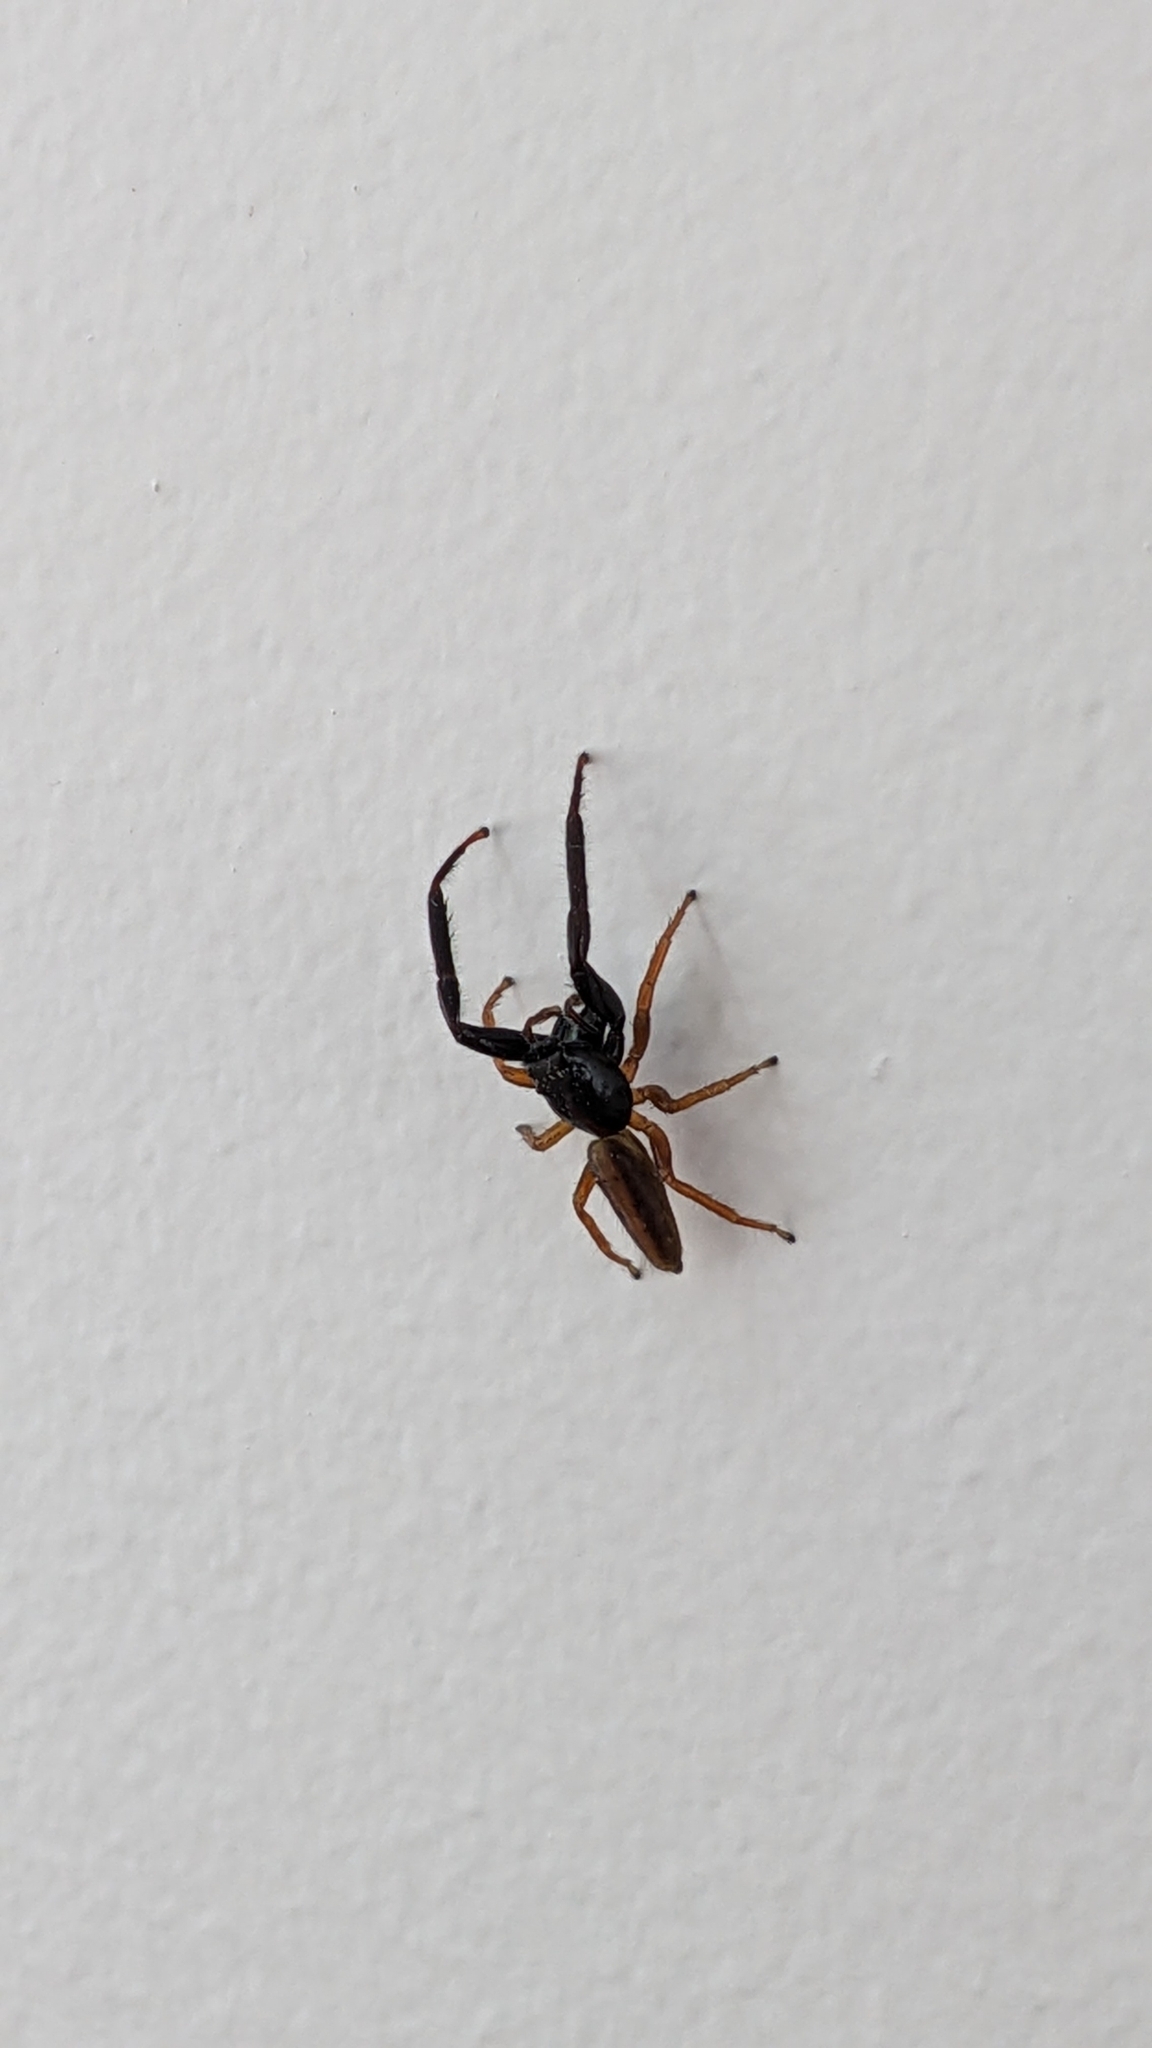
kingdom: Animalia
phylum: Arthropoda
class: Arachnida
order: Araneae
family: Salticidae
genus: Trite
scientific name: Trite planiceps
